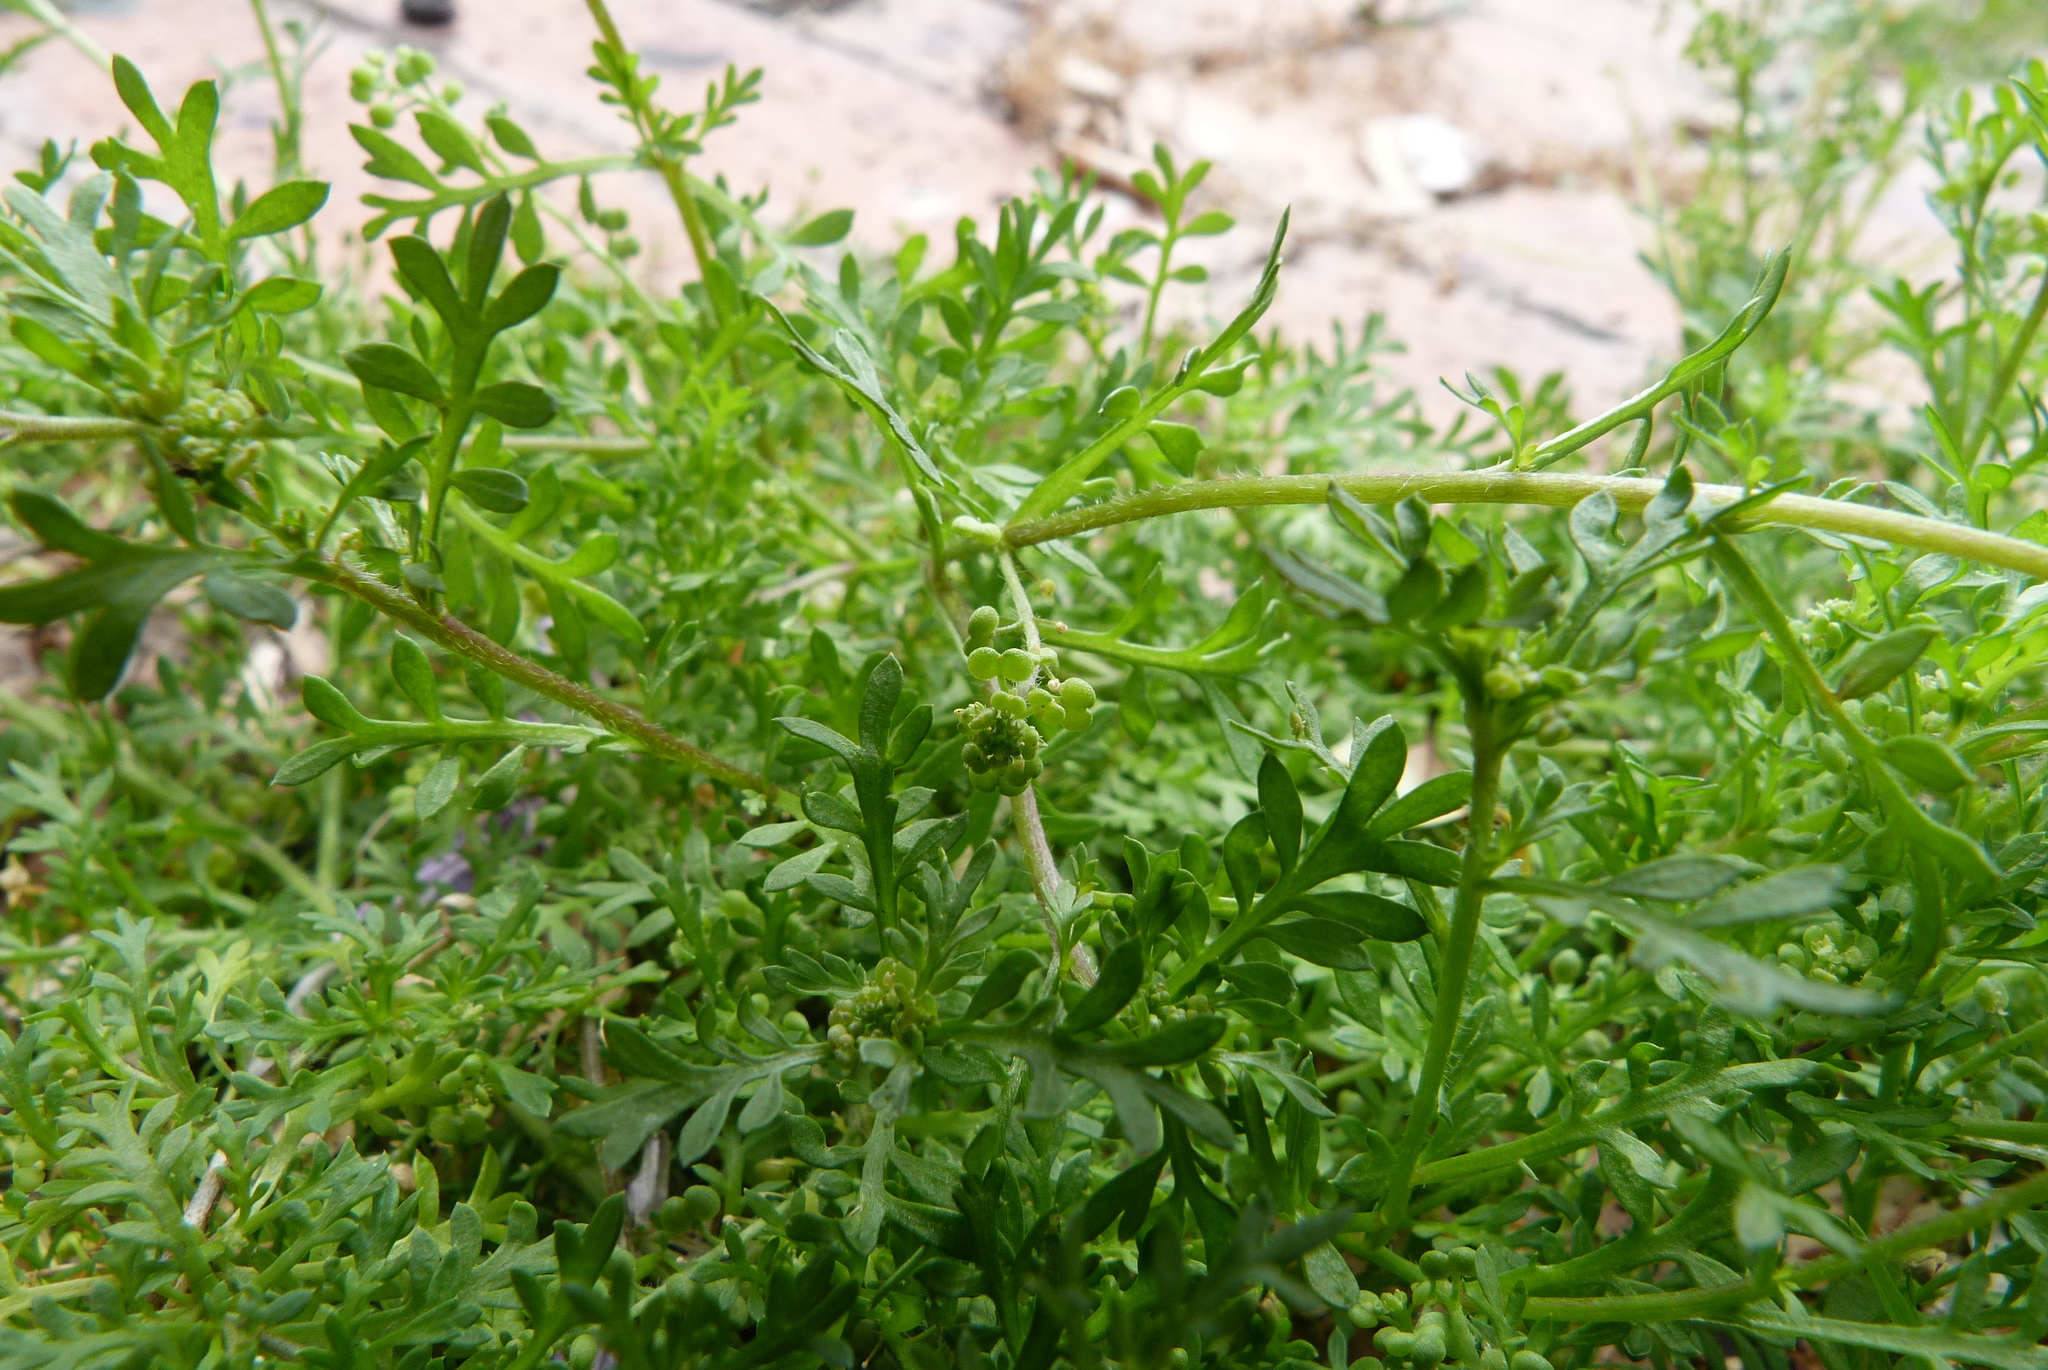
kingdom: Plantae
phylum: Tracheophyta
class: Magnoliopsida
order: Brassicales
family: Brassicaceae
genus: Lepidium
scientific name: Lepidium didymum
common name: Lesser swinecress
